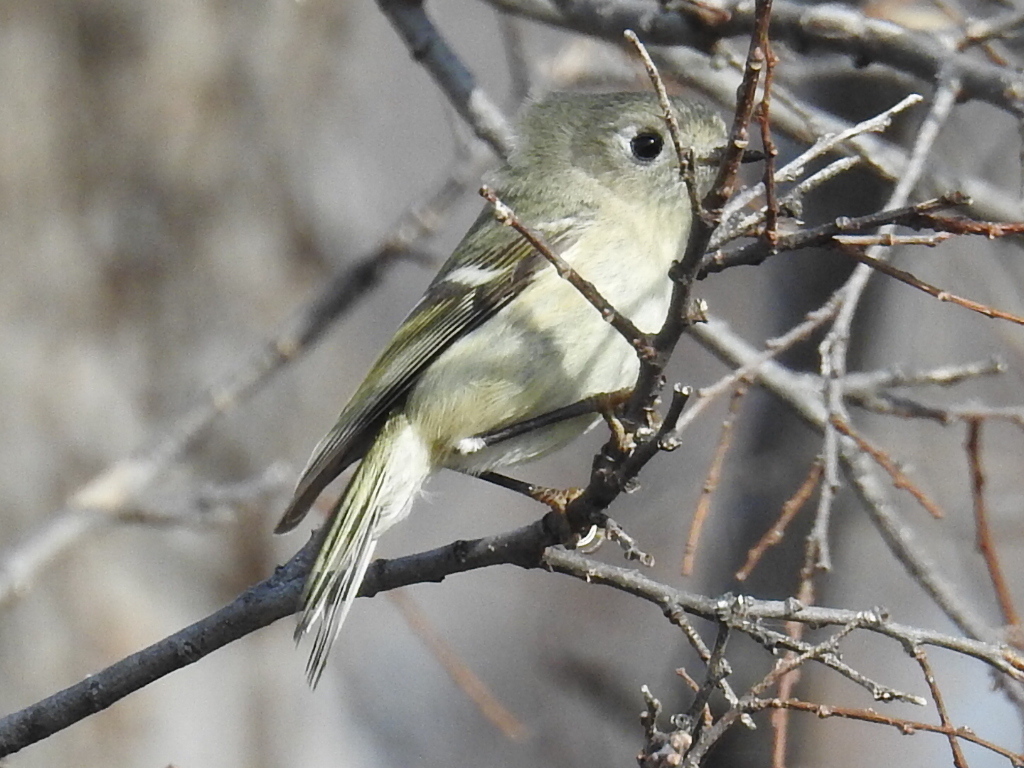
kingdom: Animalia
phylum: Chordata
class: Aves
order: Passeriformes
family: Regulidae
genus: Regulus
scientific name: Regulus calendula
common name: Ruby-crowned kinglet
